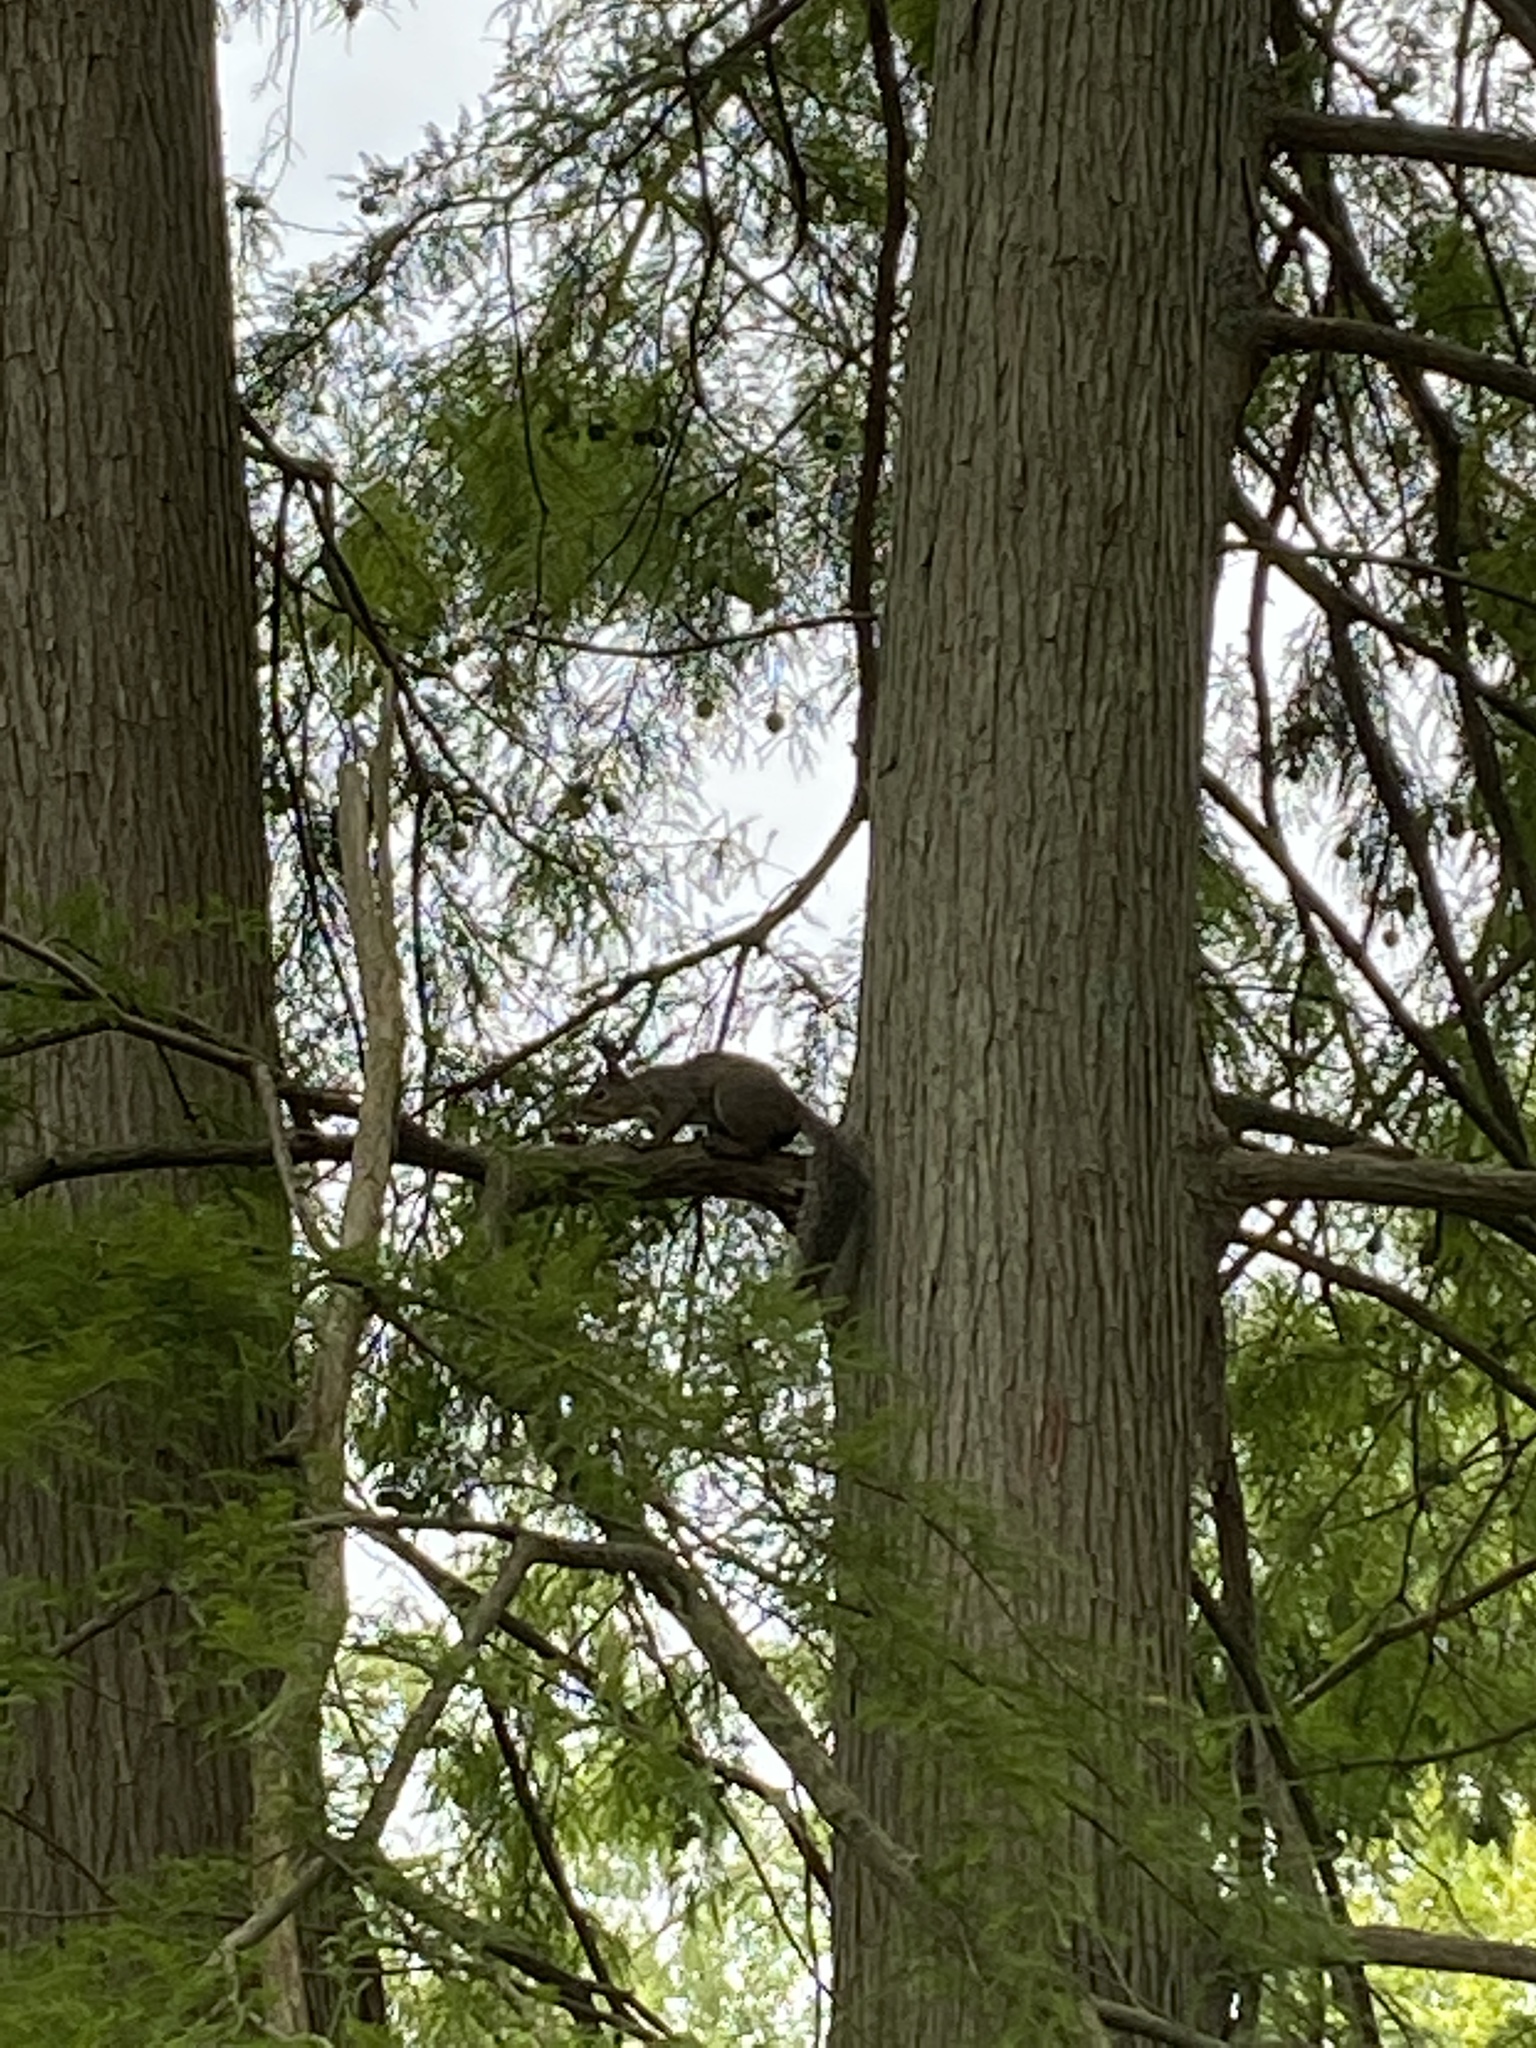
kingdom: Animalia
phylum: Chordata
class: Mammalia
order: Rodentia
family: Sciuridae
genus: Sciurus
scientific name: Sciurus carolinensis
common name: Eastern gray squirrel
